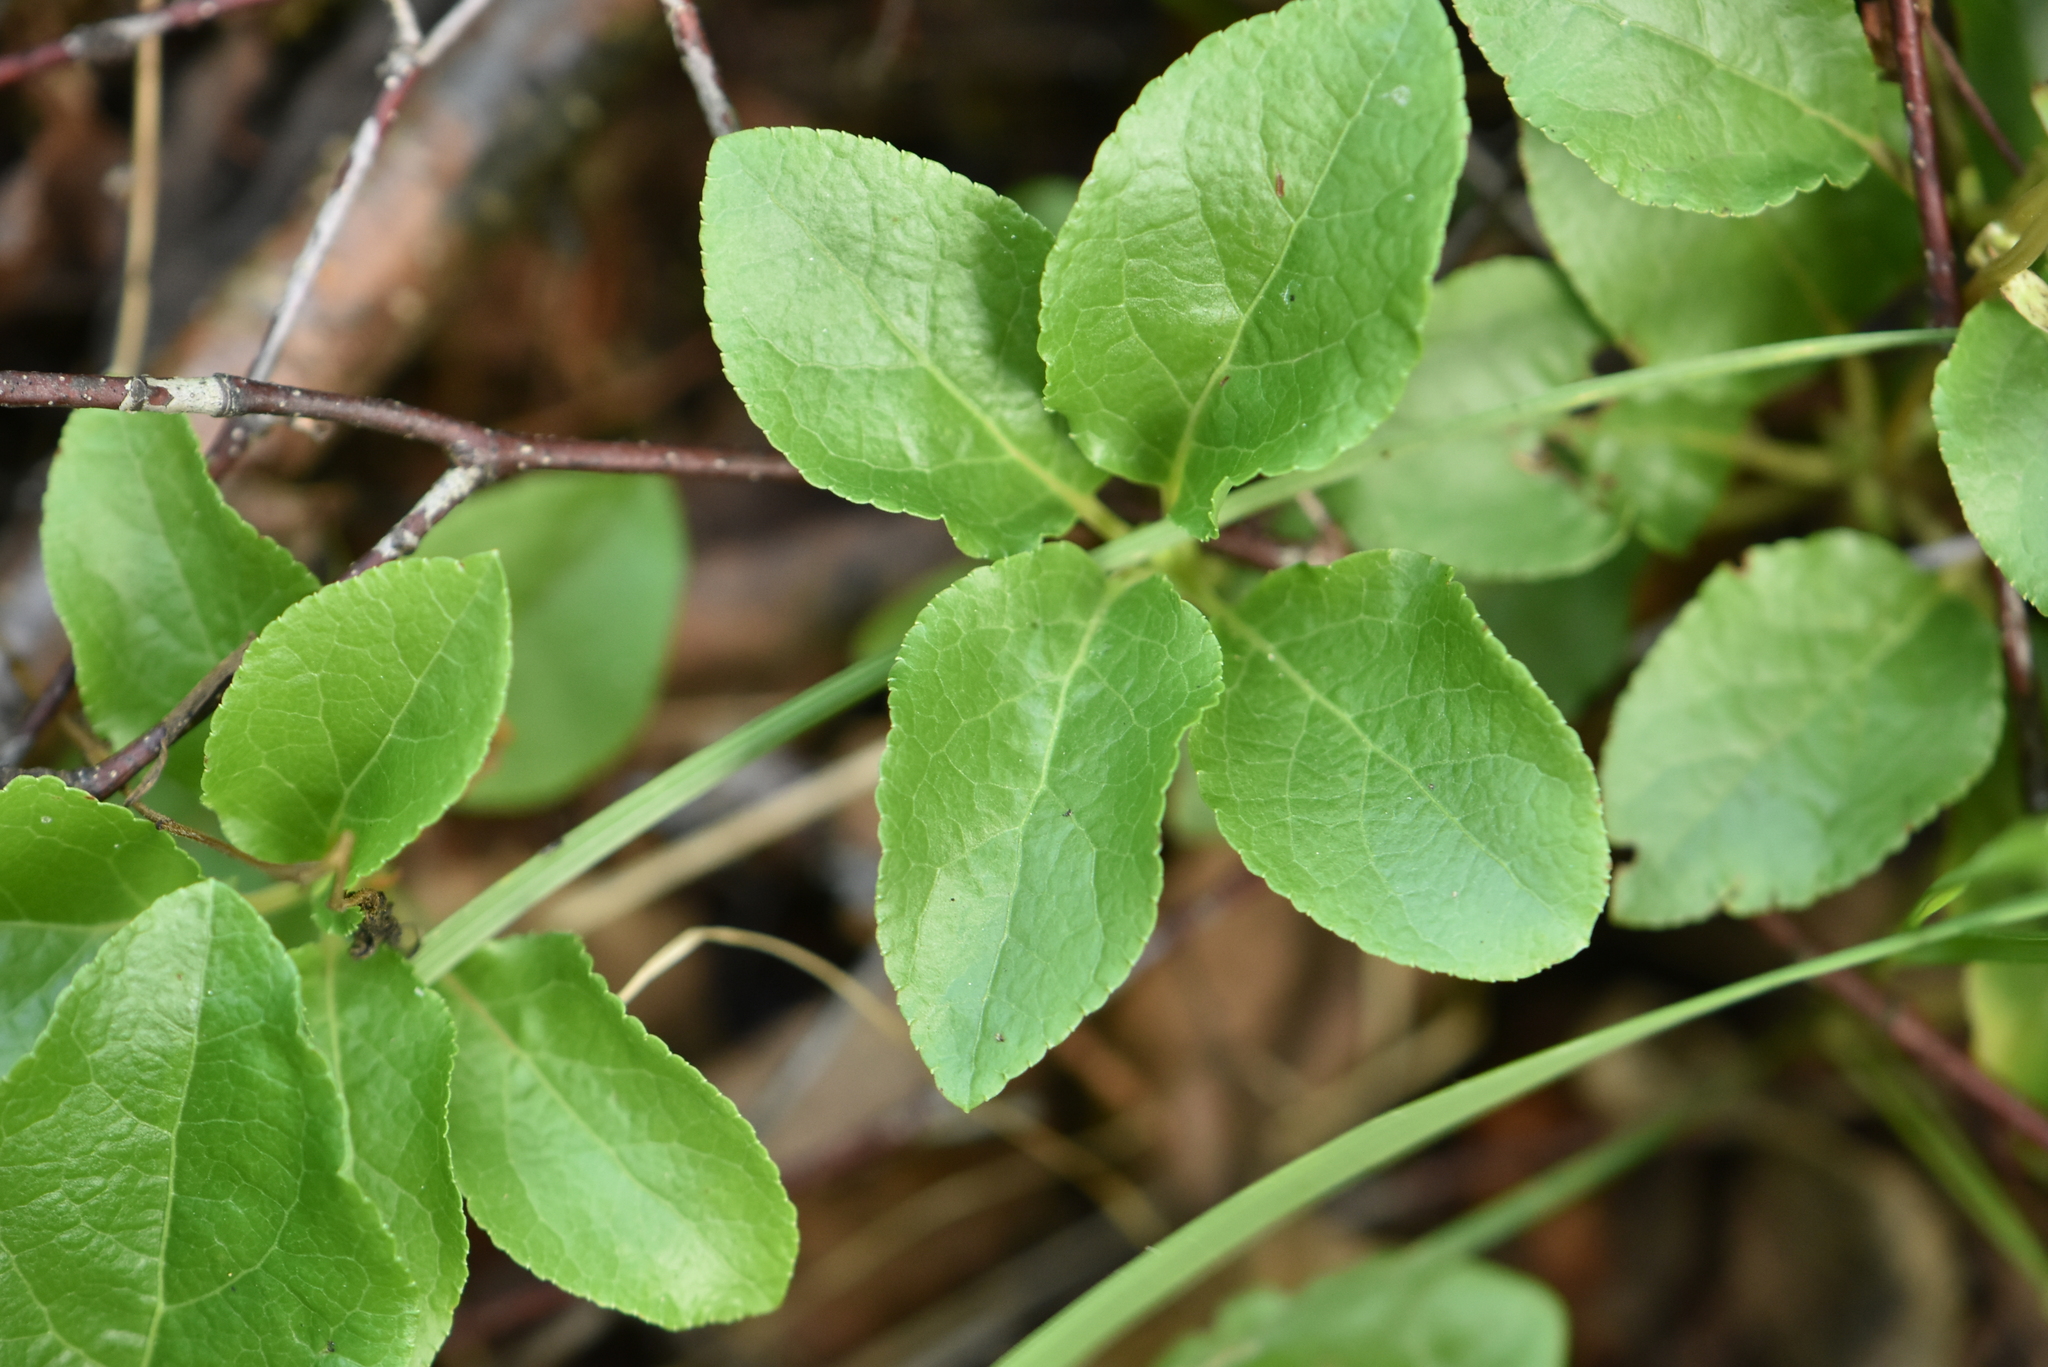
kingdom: Plantae
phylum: Tracheophyta
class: Magnoliopsida
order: Ericales
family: Ericaceae
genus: Orthilia
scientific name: Orthilia secunda
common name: One-sided orthilia
